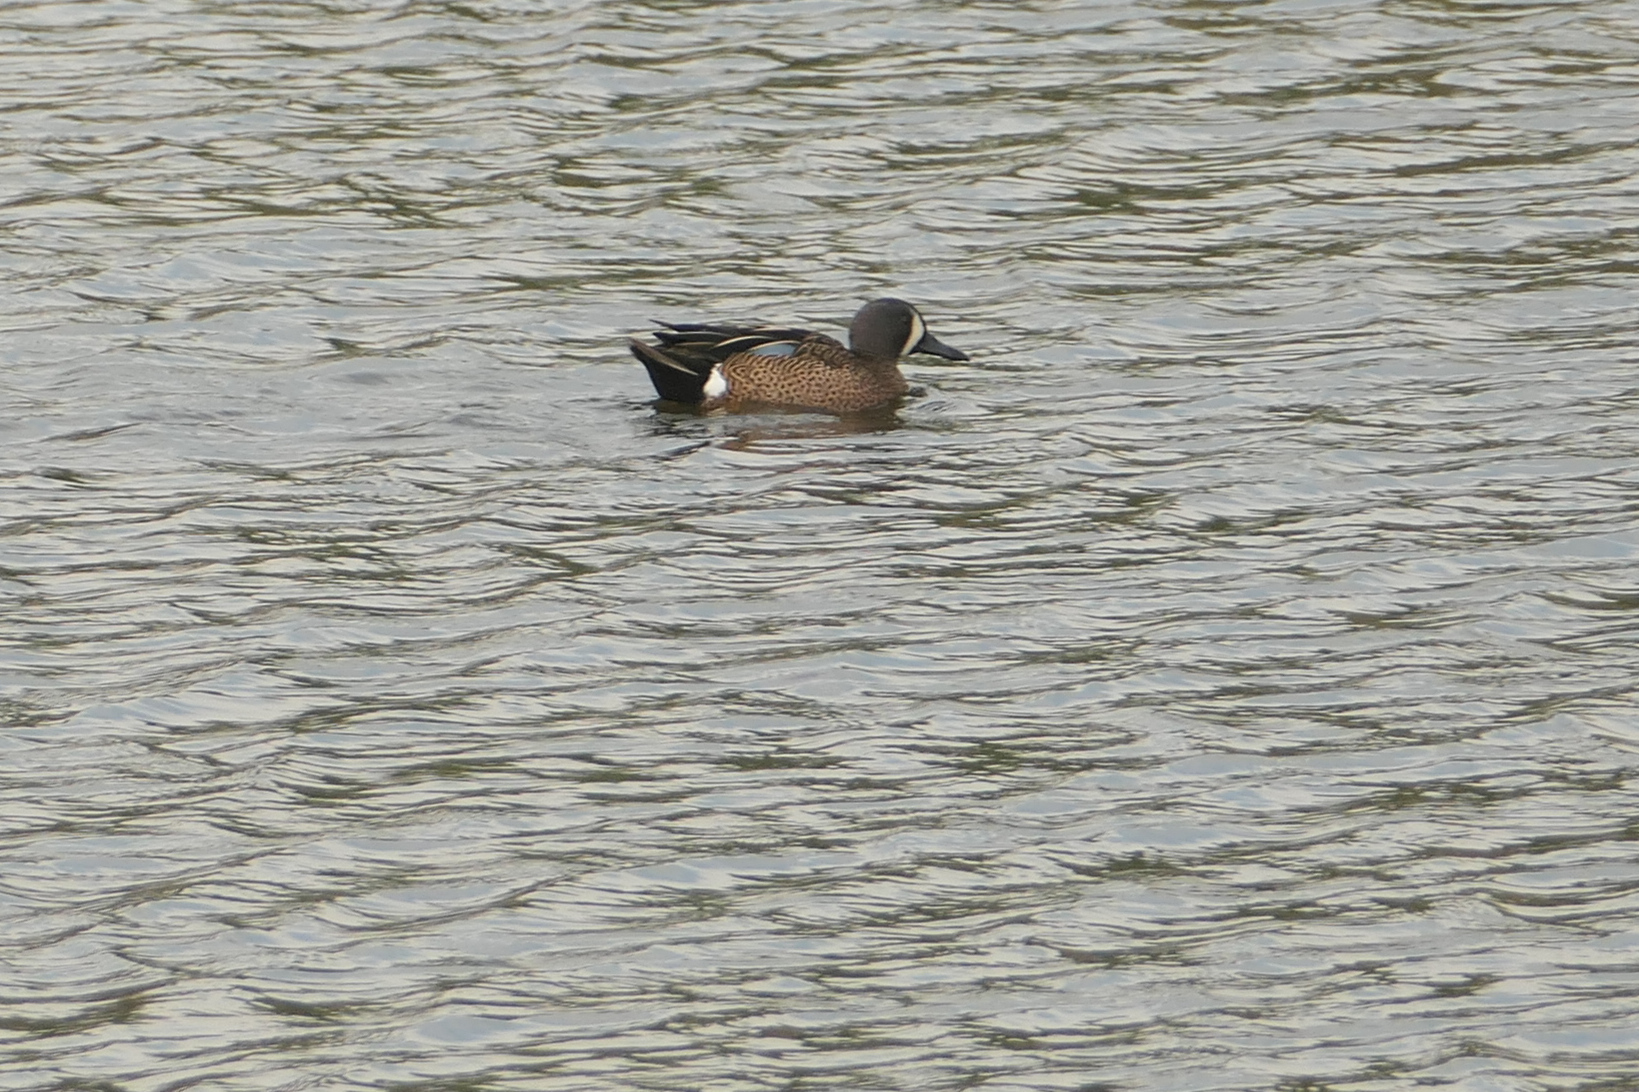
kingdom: Animalia
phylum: Chordata
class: Aves
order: Anseriformes
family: Anatidae
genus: Spatula
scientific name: Spatula discors
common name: Blue-winged teal
